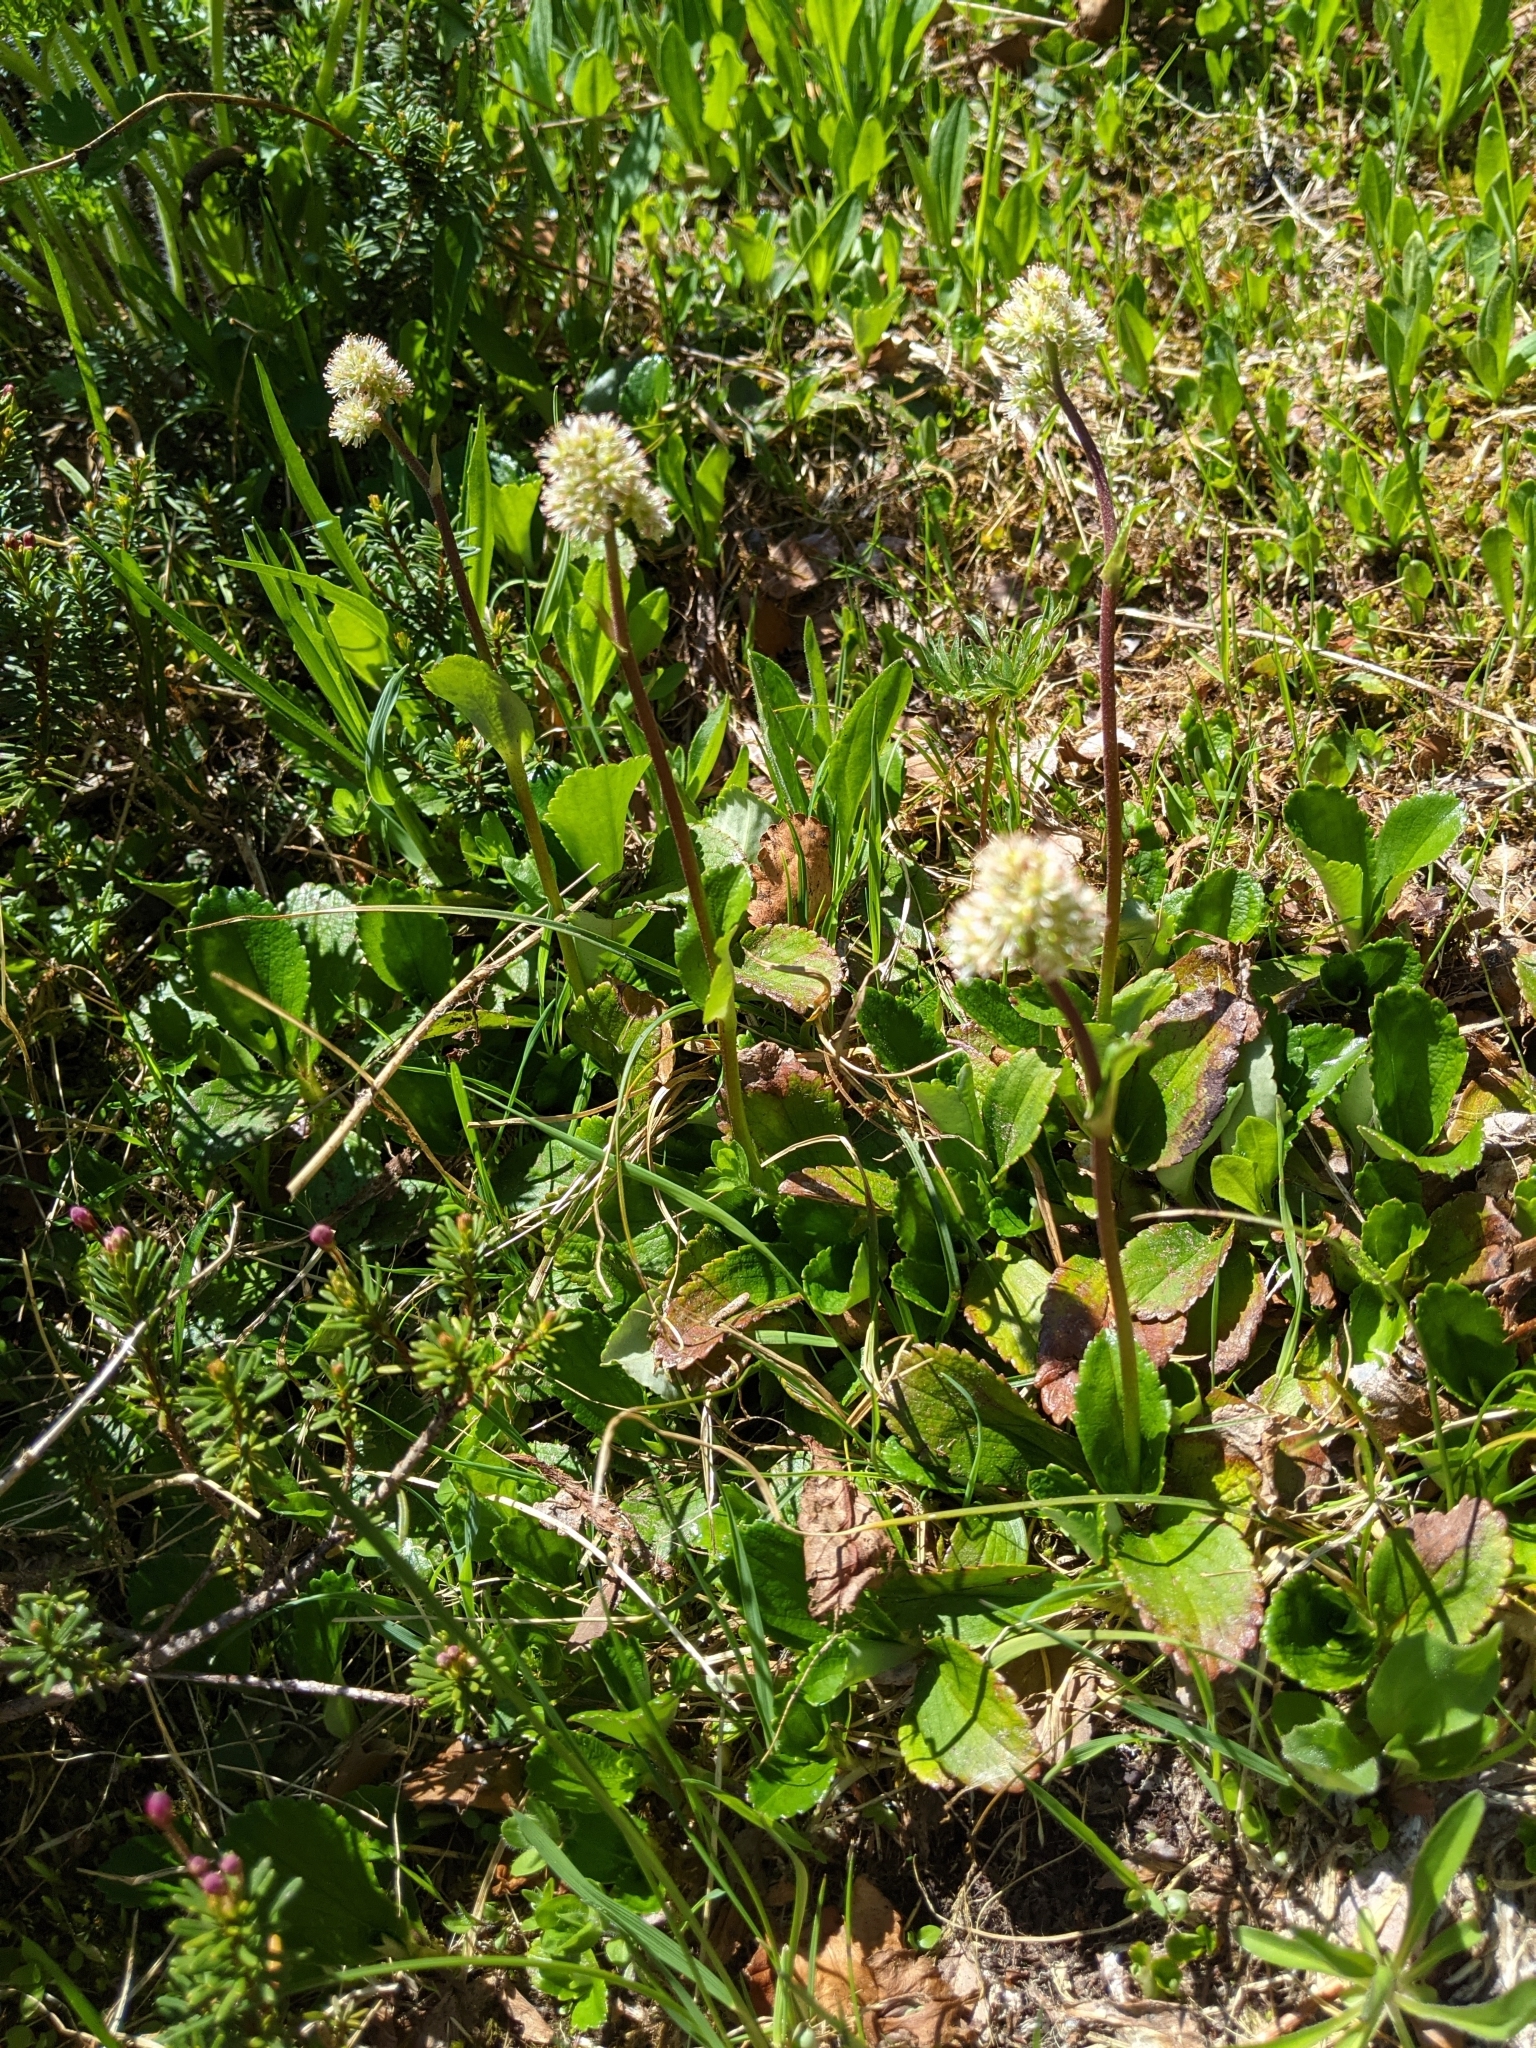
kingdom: Plantae
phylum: Tracheophyta
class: Magnoliopsida
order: Saxifragales
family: Saxifragaceae
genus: Leptarrhena
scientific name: Leptarrhena pyrolifolia
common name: Leatherleaf-saxifrage
